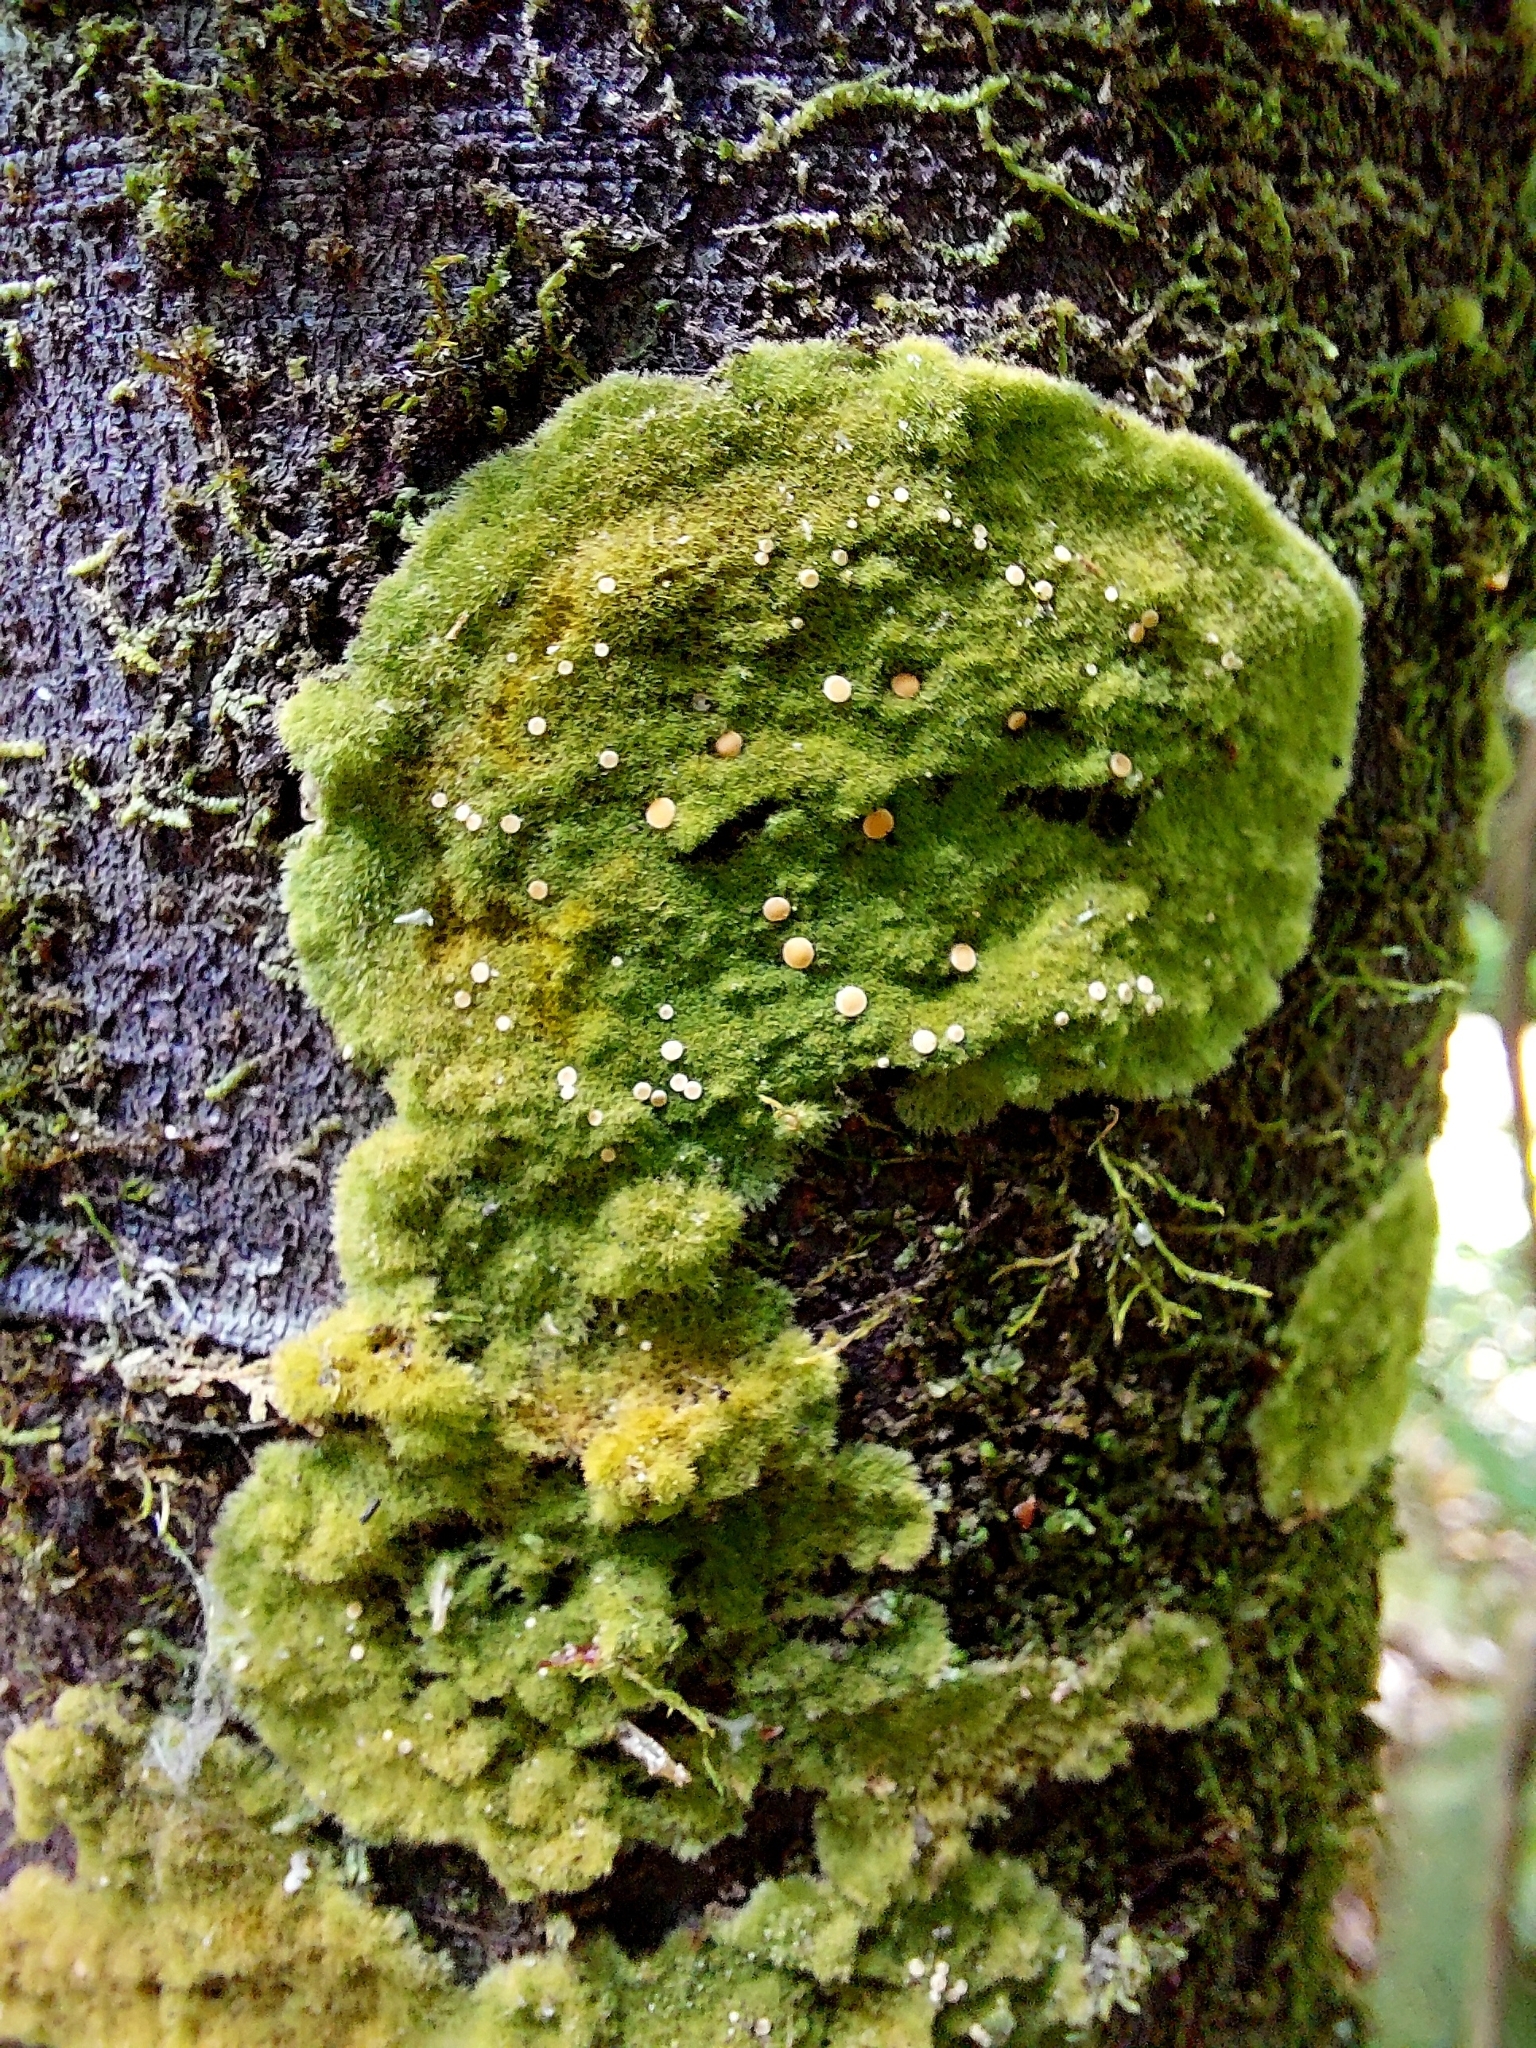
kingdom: Fungi
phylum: Ascomycota
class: Lecanoromycetes
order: Ostropales
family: Coenogoniaceae
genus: Coenogonium
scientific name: Coenogonium implexum
